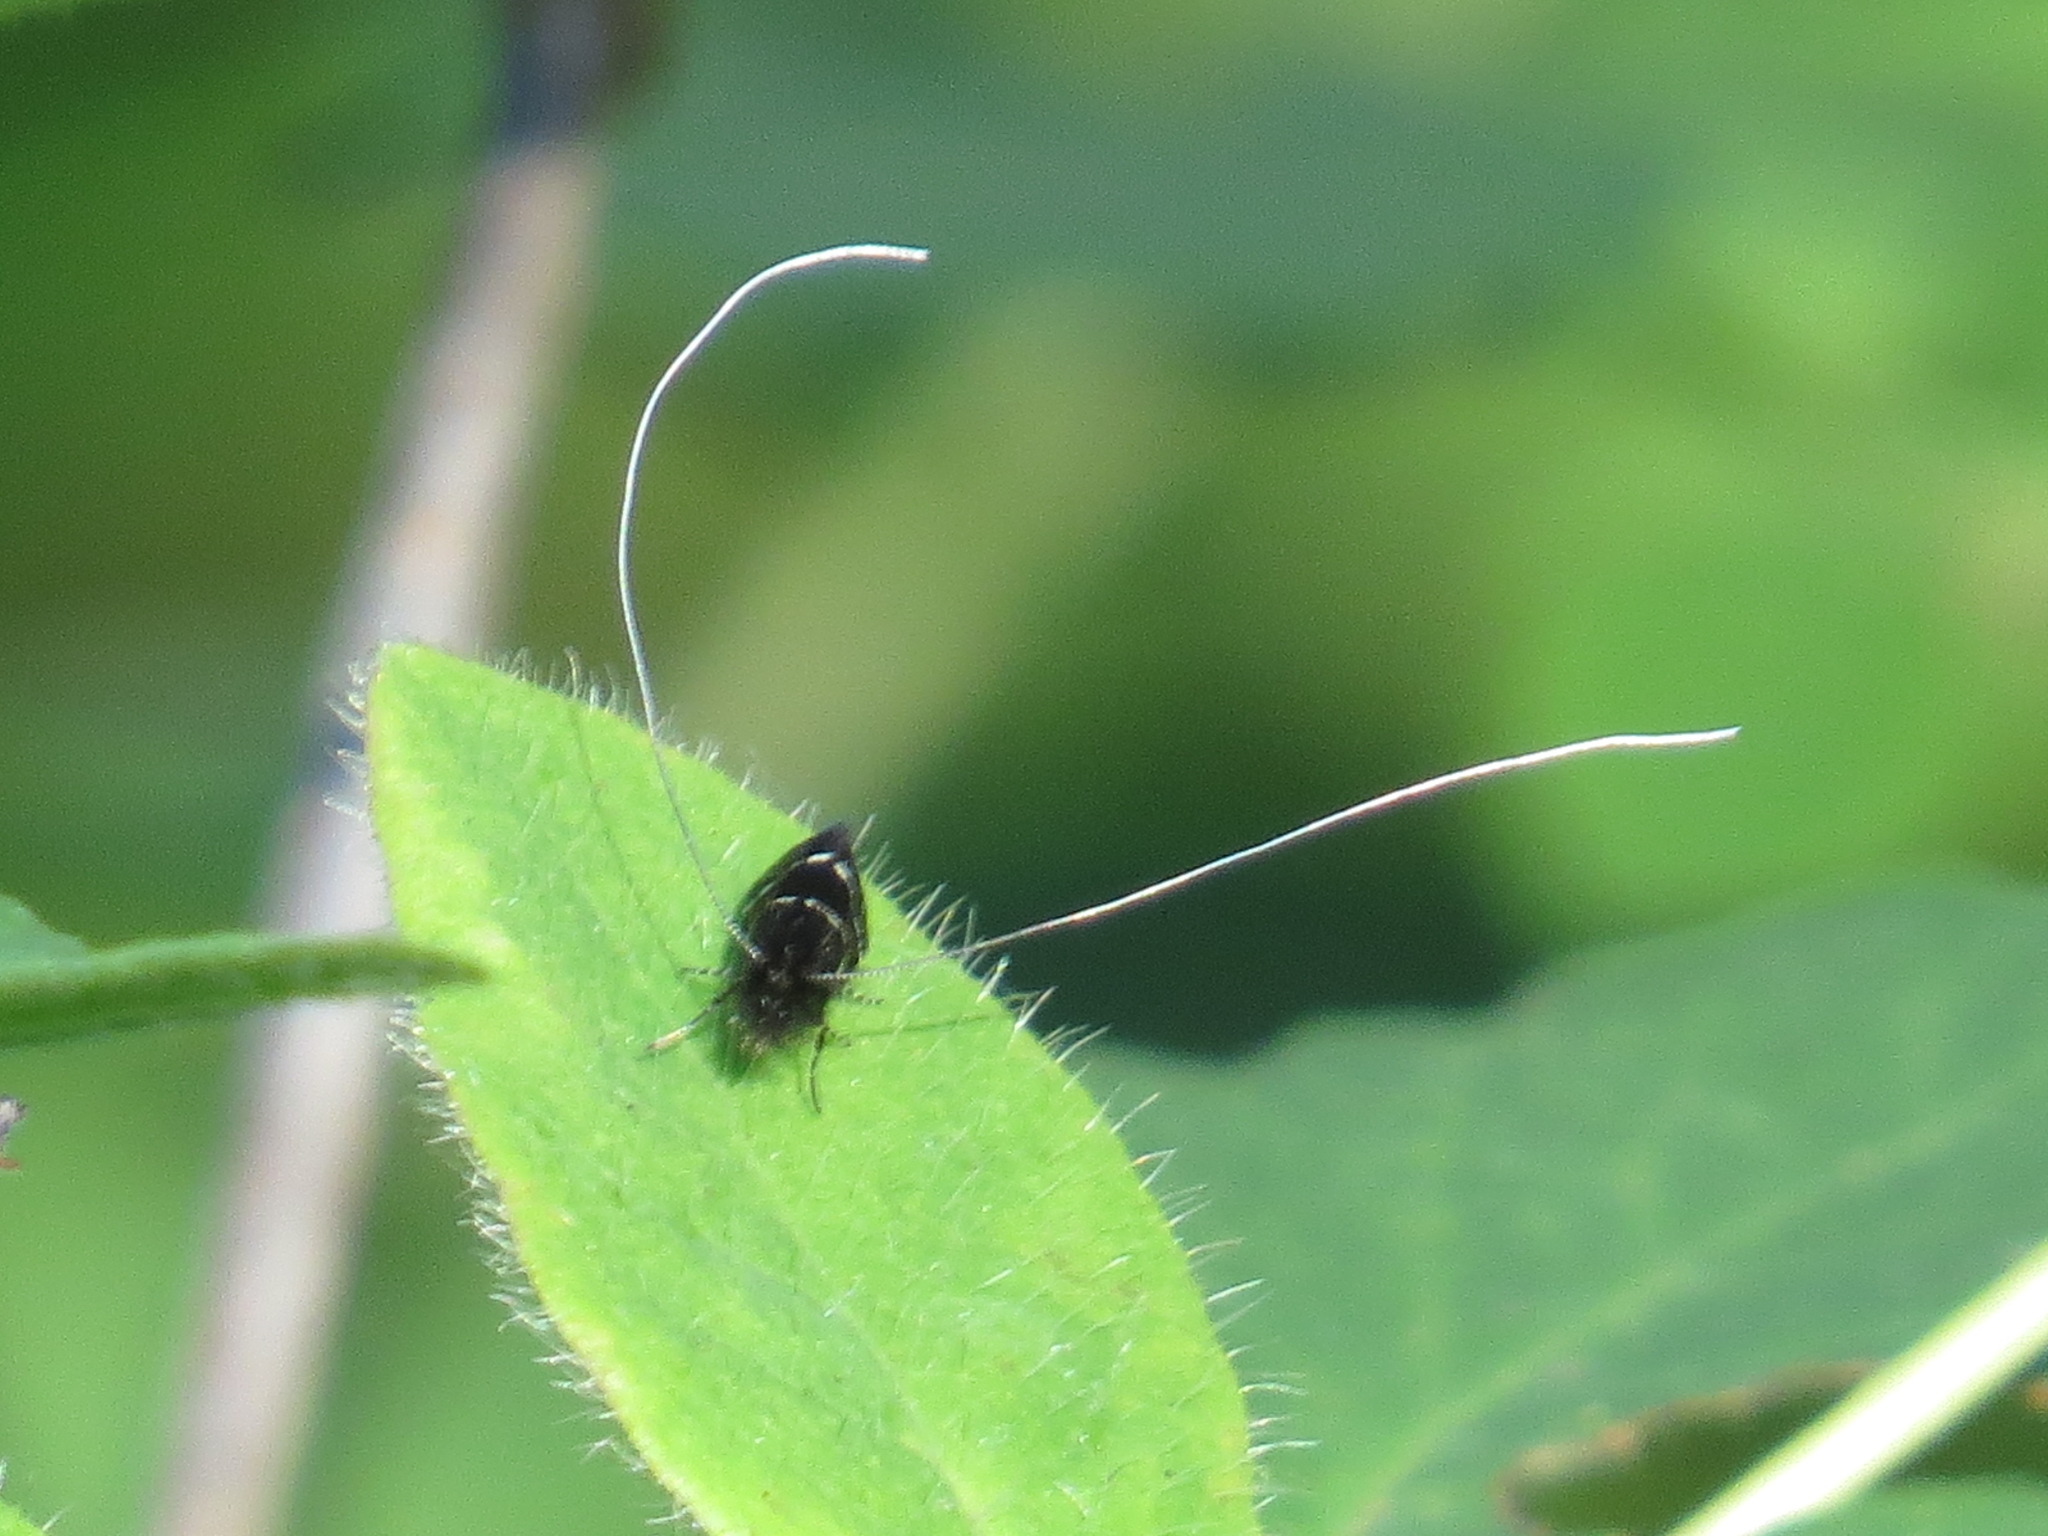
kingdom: Animalia
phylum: Arthropoda
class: Insecta
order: Lepidoptera
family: Adelidae
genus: Adela
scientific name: Adela septentrionella
